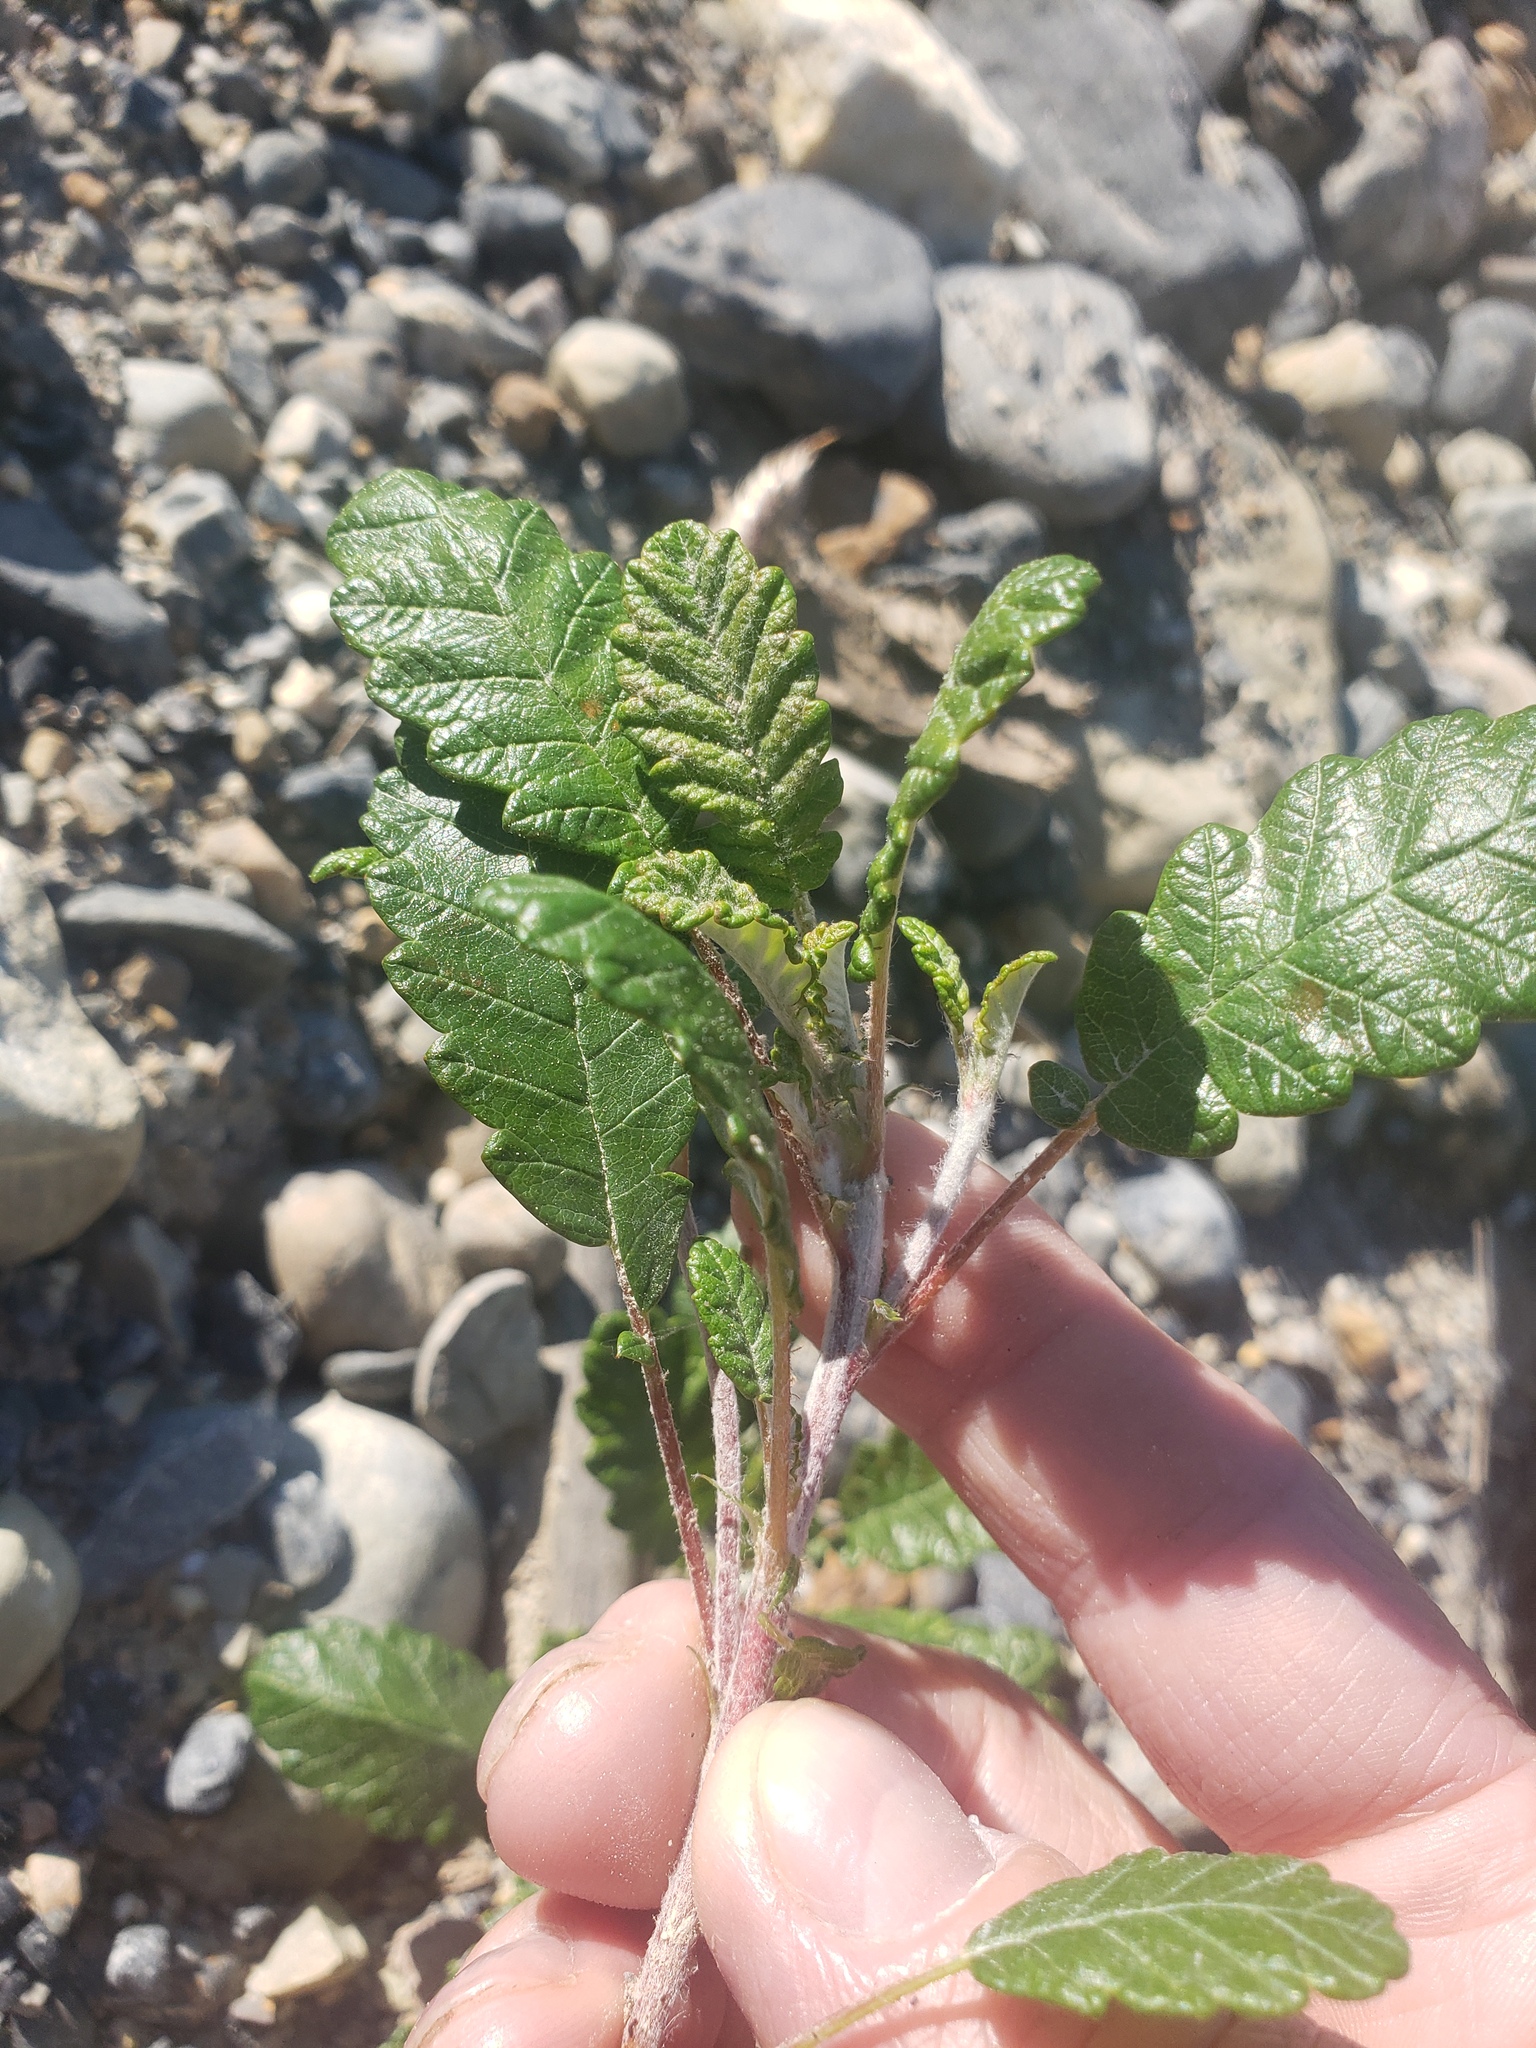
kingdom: Plantae
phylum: Tracheophyta
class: Magnoliopsida
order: Rosales
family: Rosaceae
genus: Dryas
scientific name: Dryas drummondii
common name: Drummond's dryad
